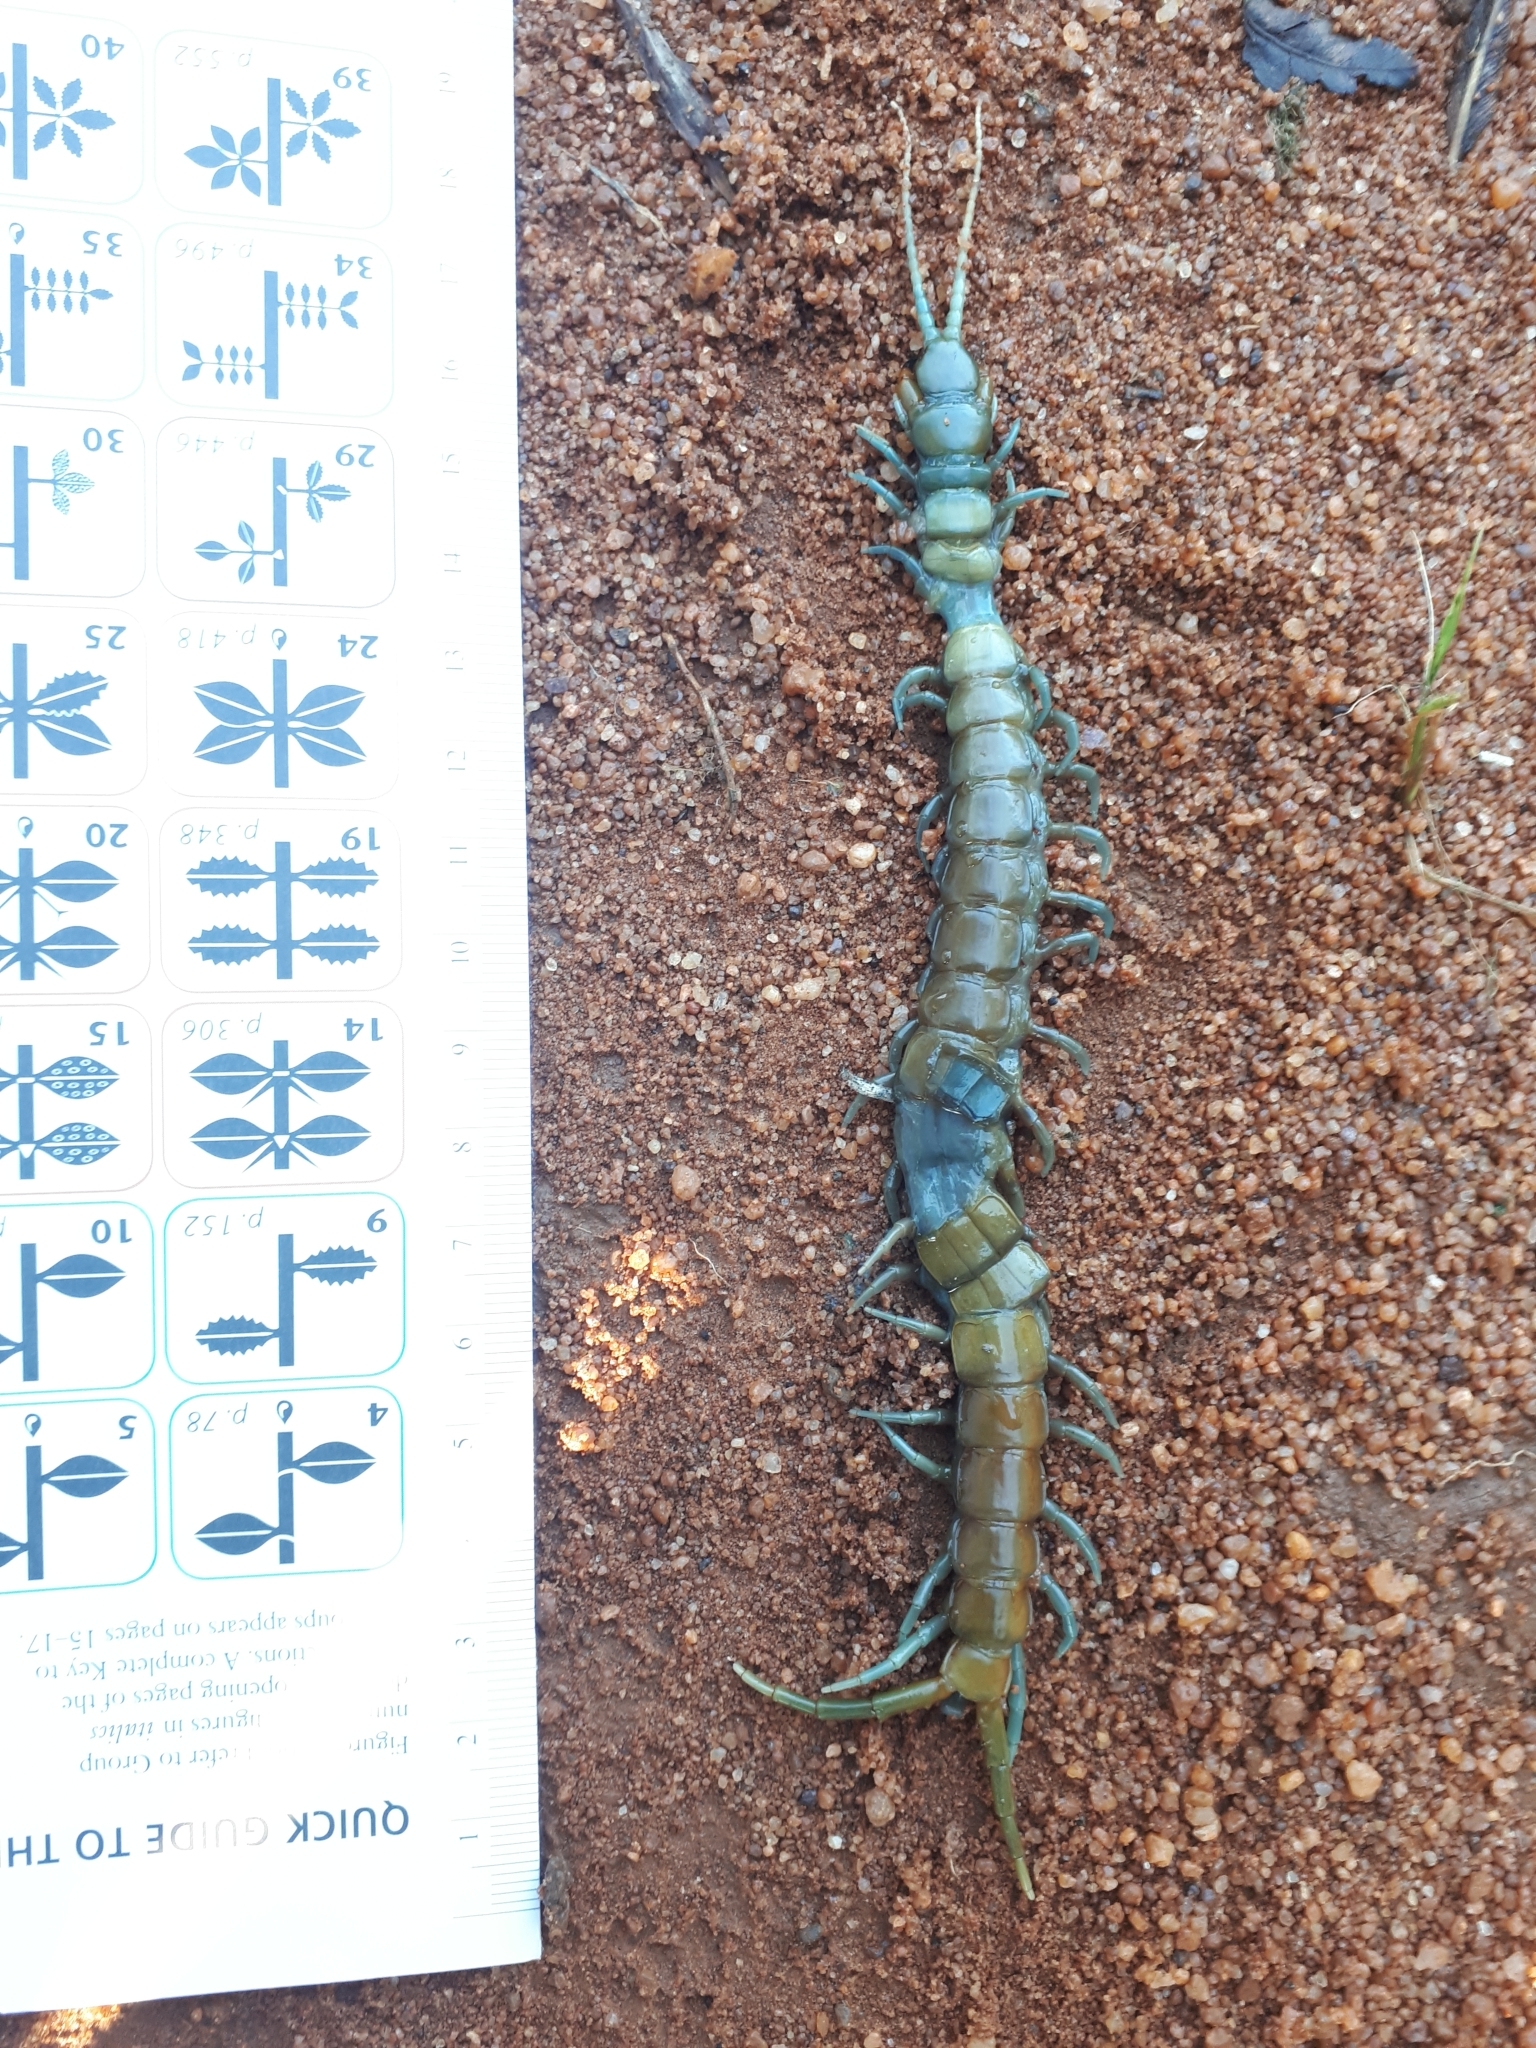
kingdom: Animalia
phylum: Arthropoda
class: Chilopoda
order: Scolopendromorpha
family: Scolopendridae
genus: Ethmostigmus
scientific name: Ethmostigmus trigonopodus
